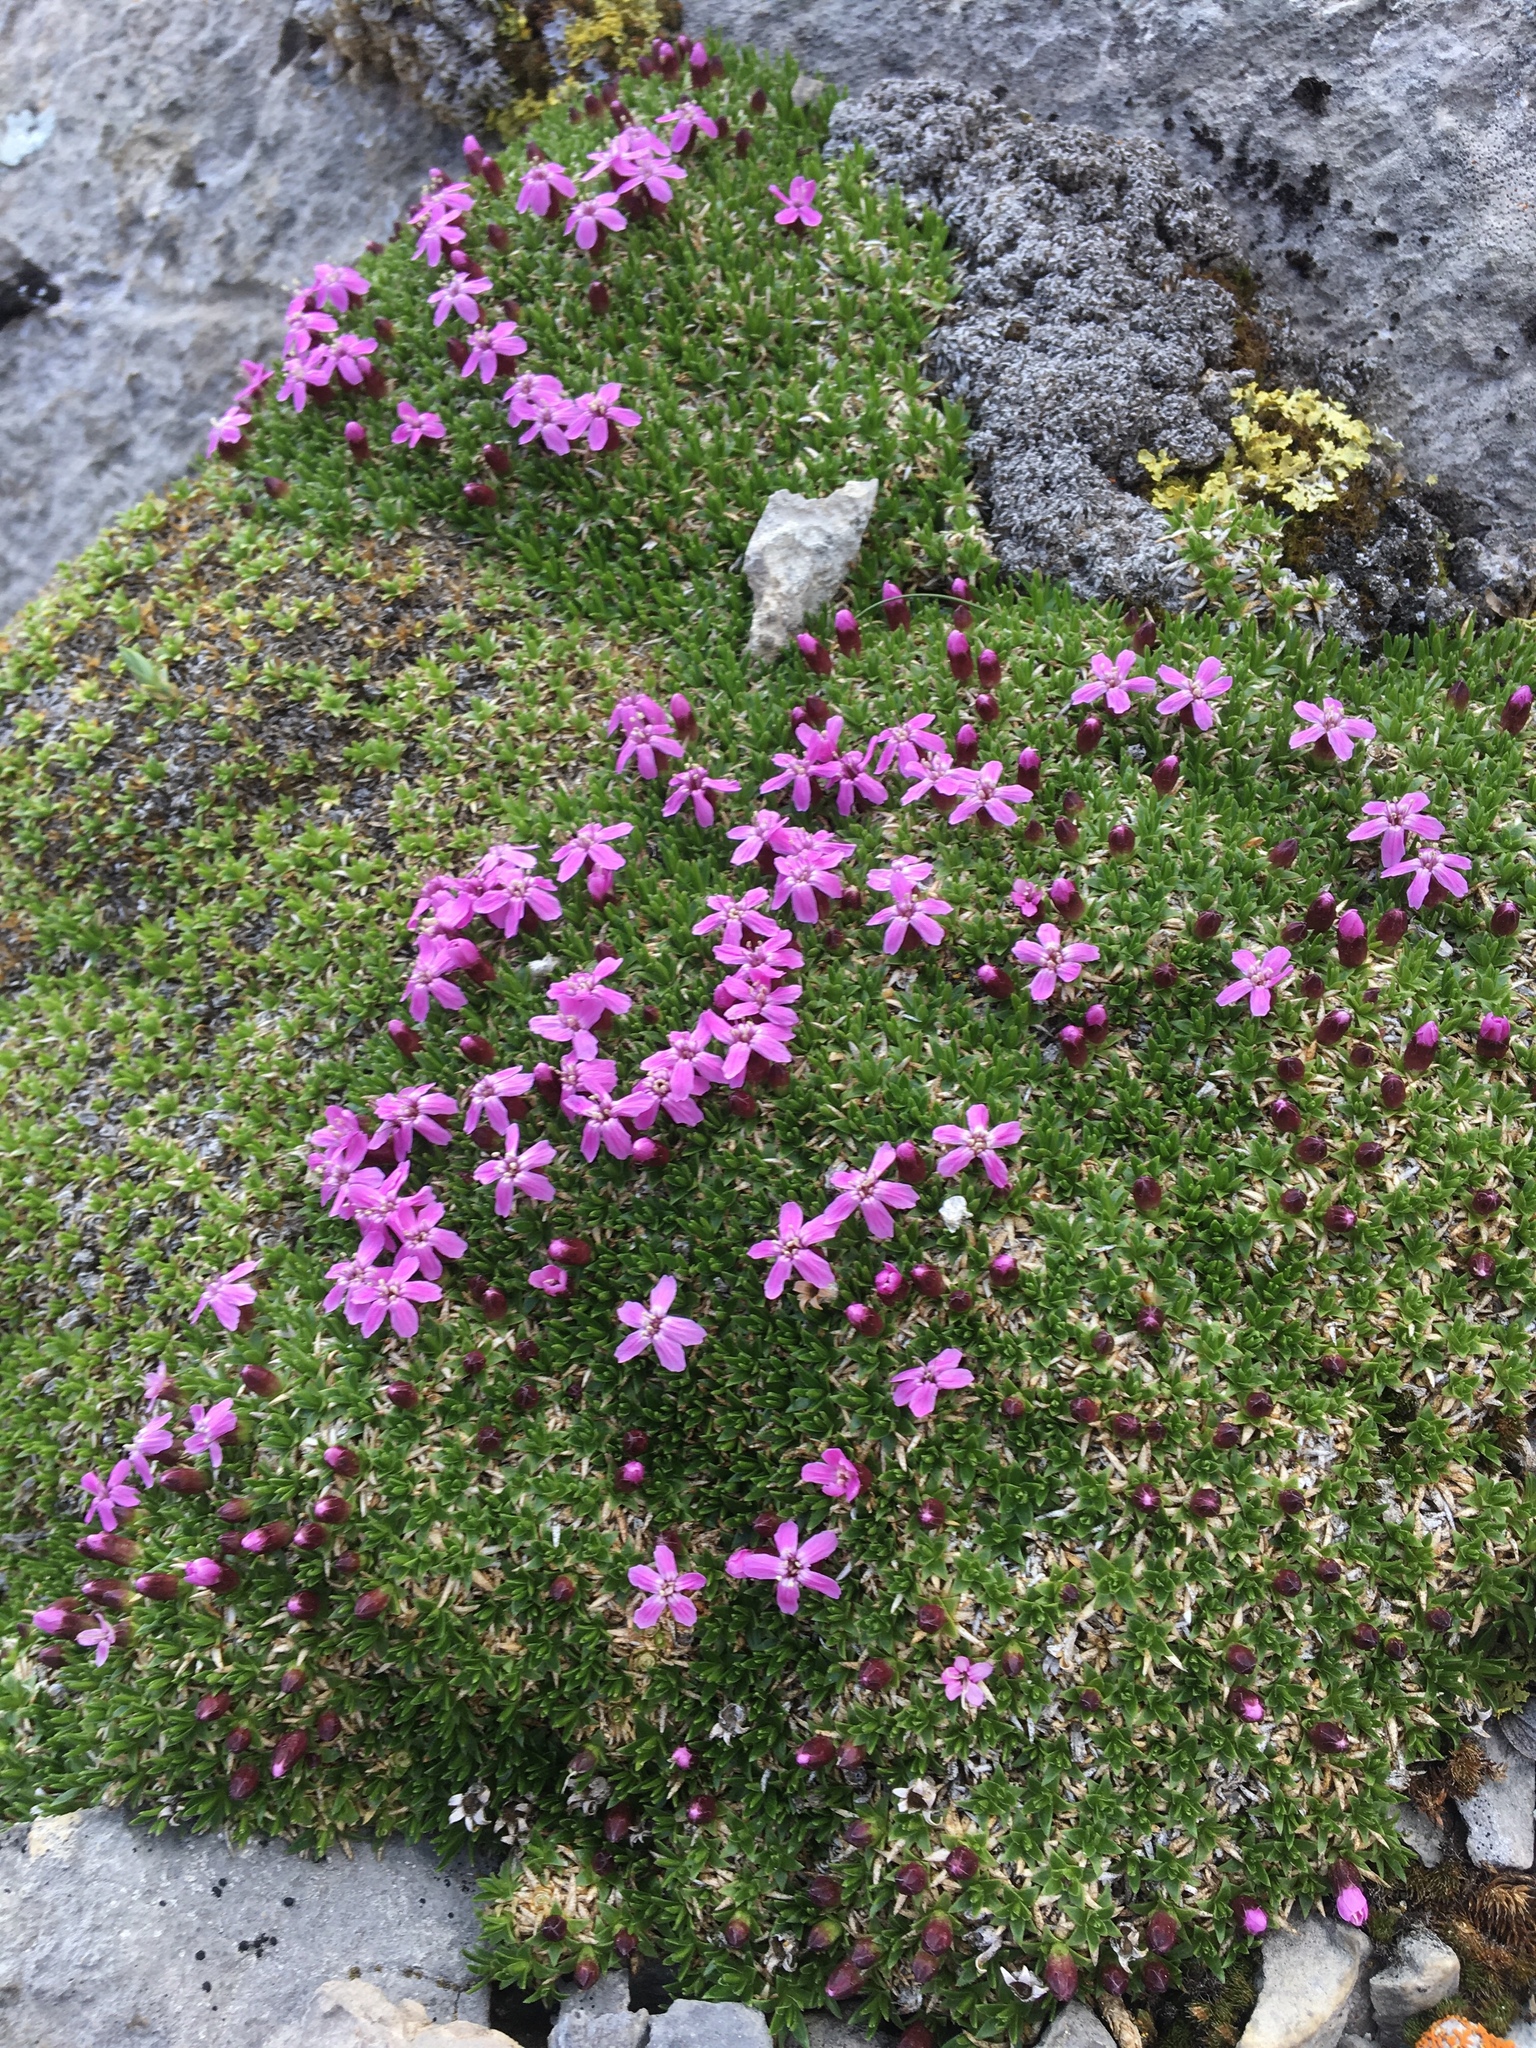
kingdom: Plantae
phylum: Tracheophyta
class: Magnoliopsida
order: Caryophyllales
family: Caryophyllaceae
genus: Silene
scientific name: Silene acaulis
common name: Moss campion
